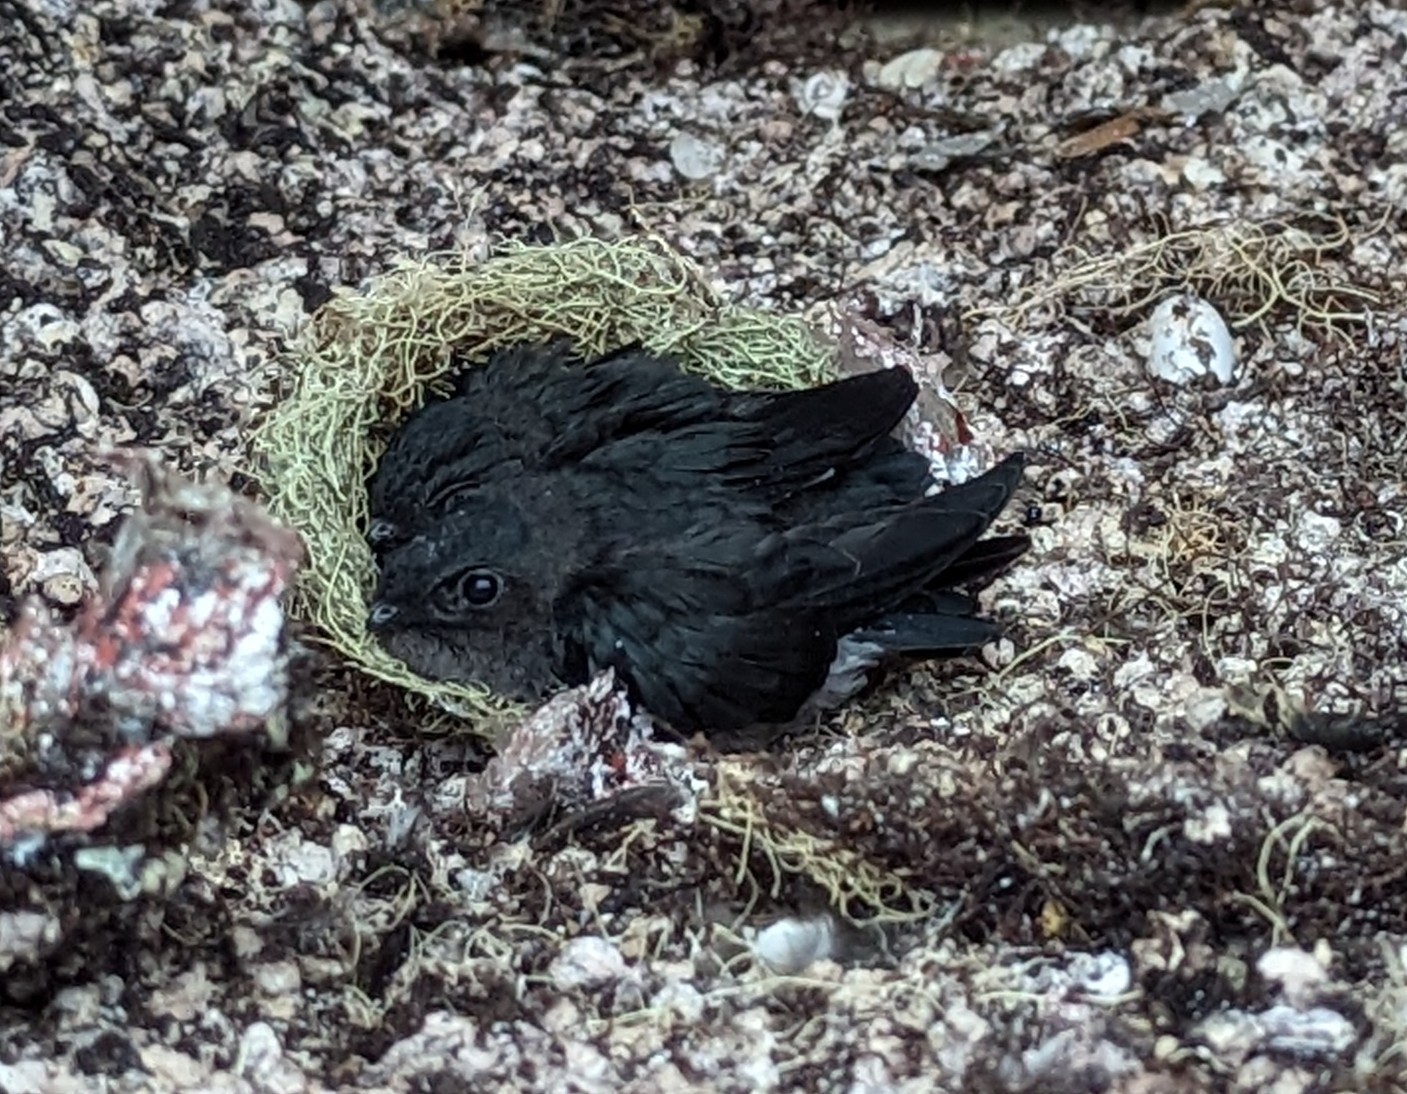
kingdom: Animalia
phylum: Chordata
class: Aves
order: Apodiformes
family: Apodidae
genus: Aerodramus
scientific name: Aerodramus salangana
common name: Mossy-nest swiftlet
